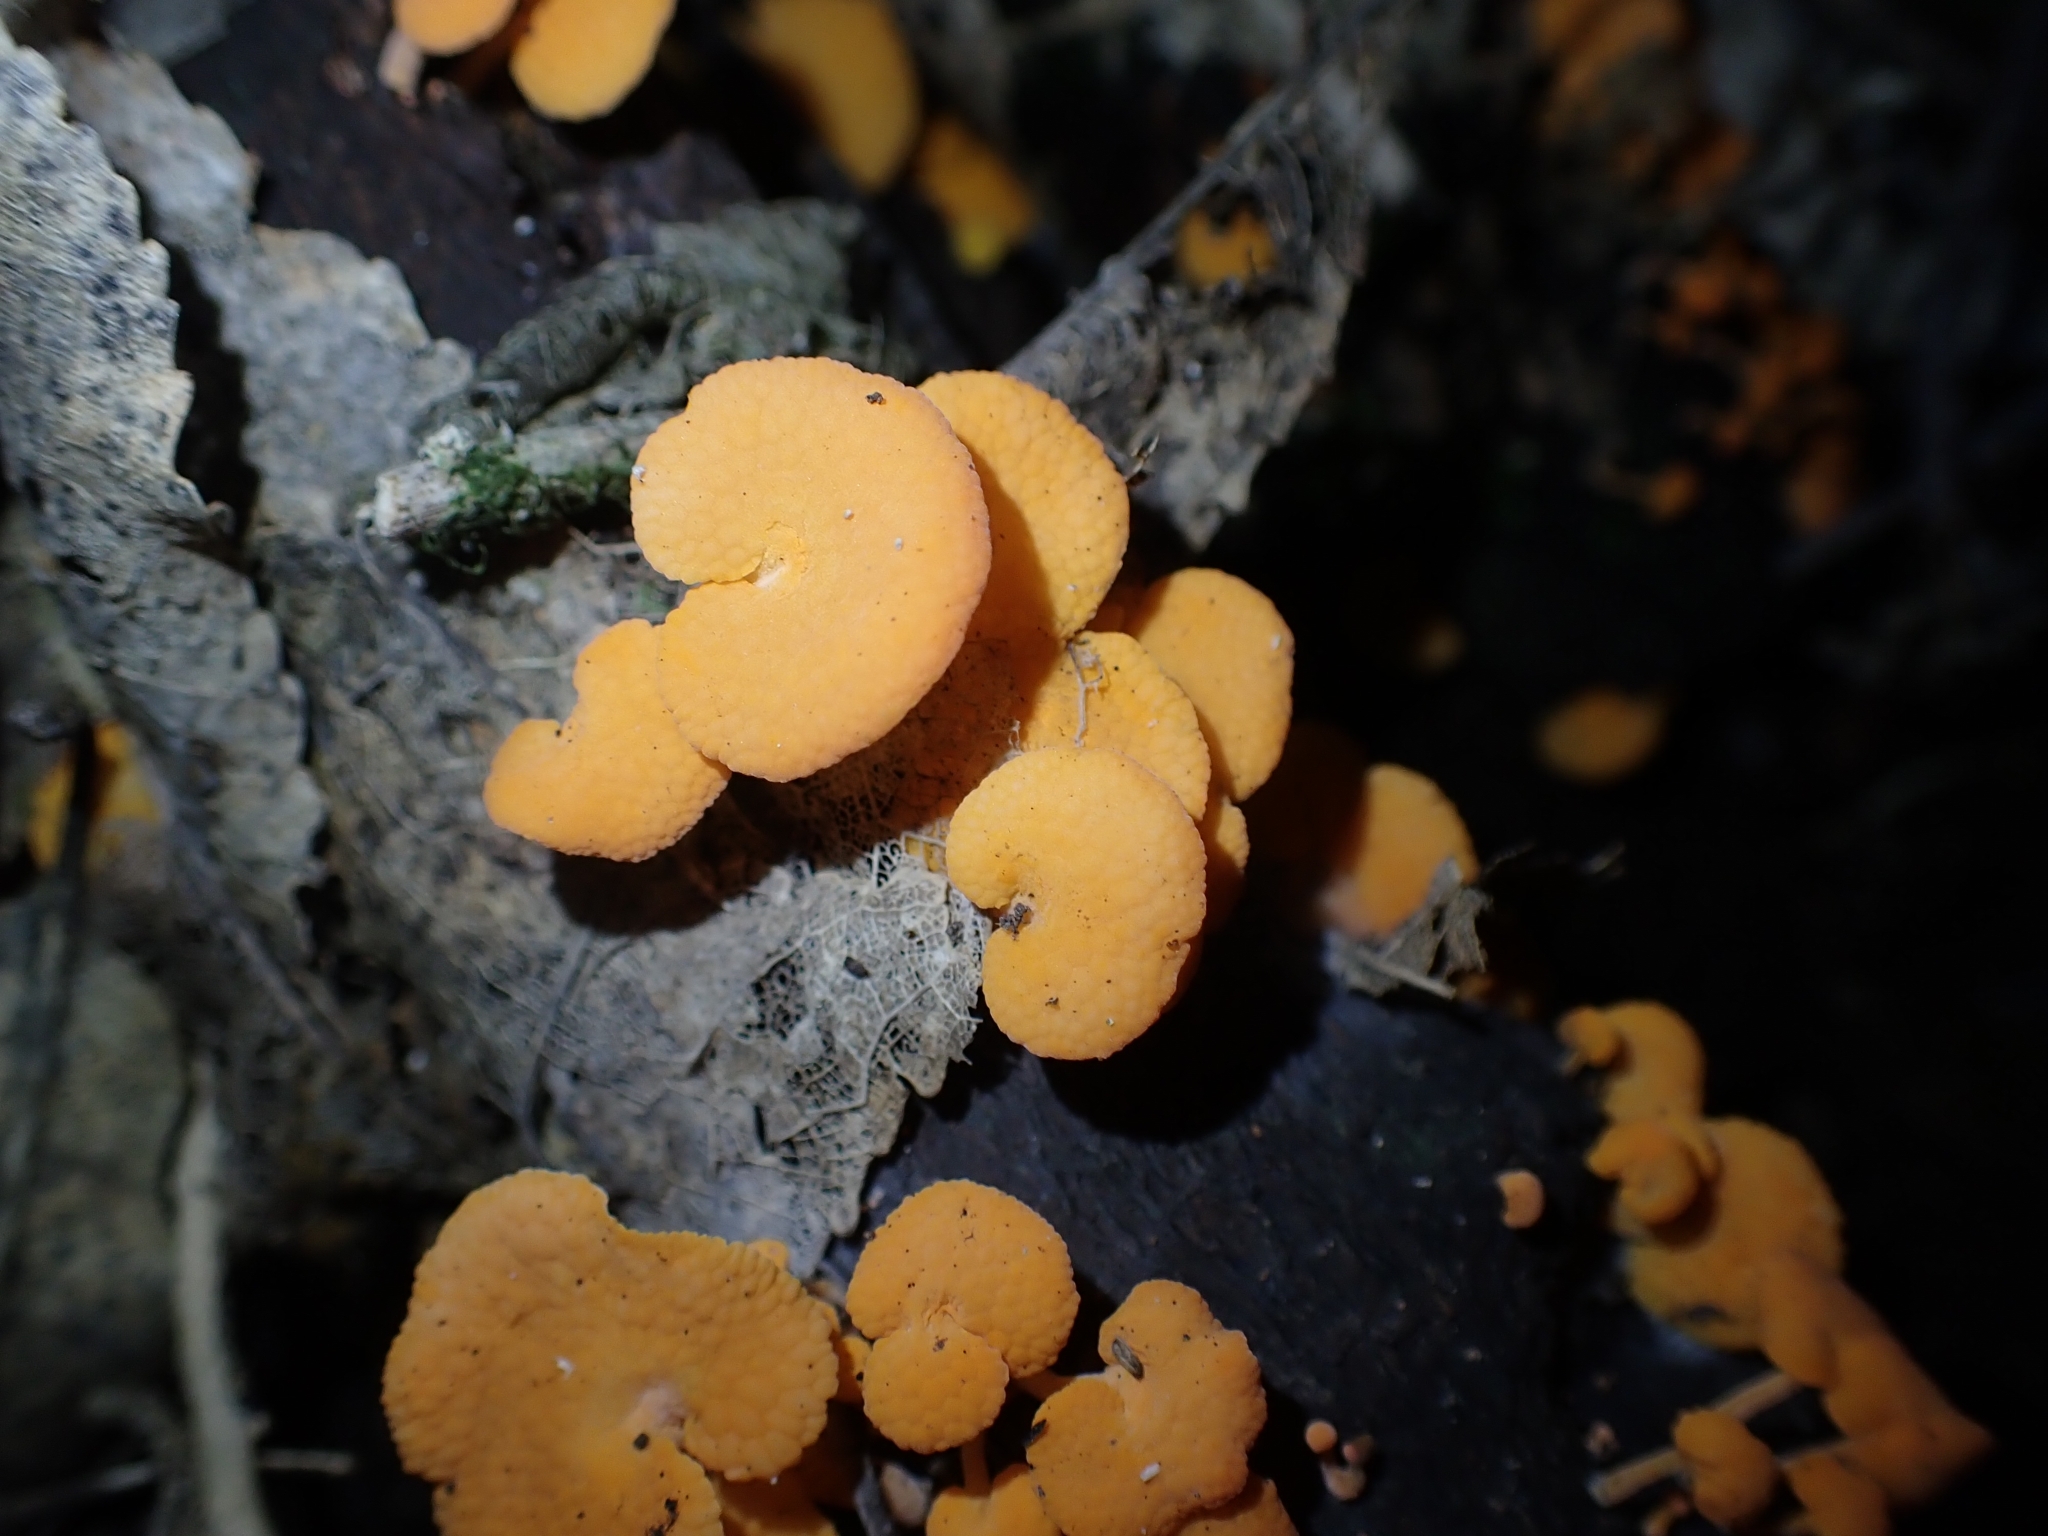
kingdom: Fungi
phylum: Basidiomycota
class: Agaricomycetes
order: Agaricales
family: Mycenaceae
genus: Favolaschia
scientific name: Favolaschia claudopus
